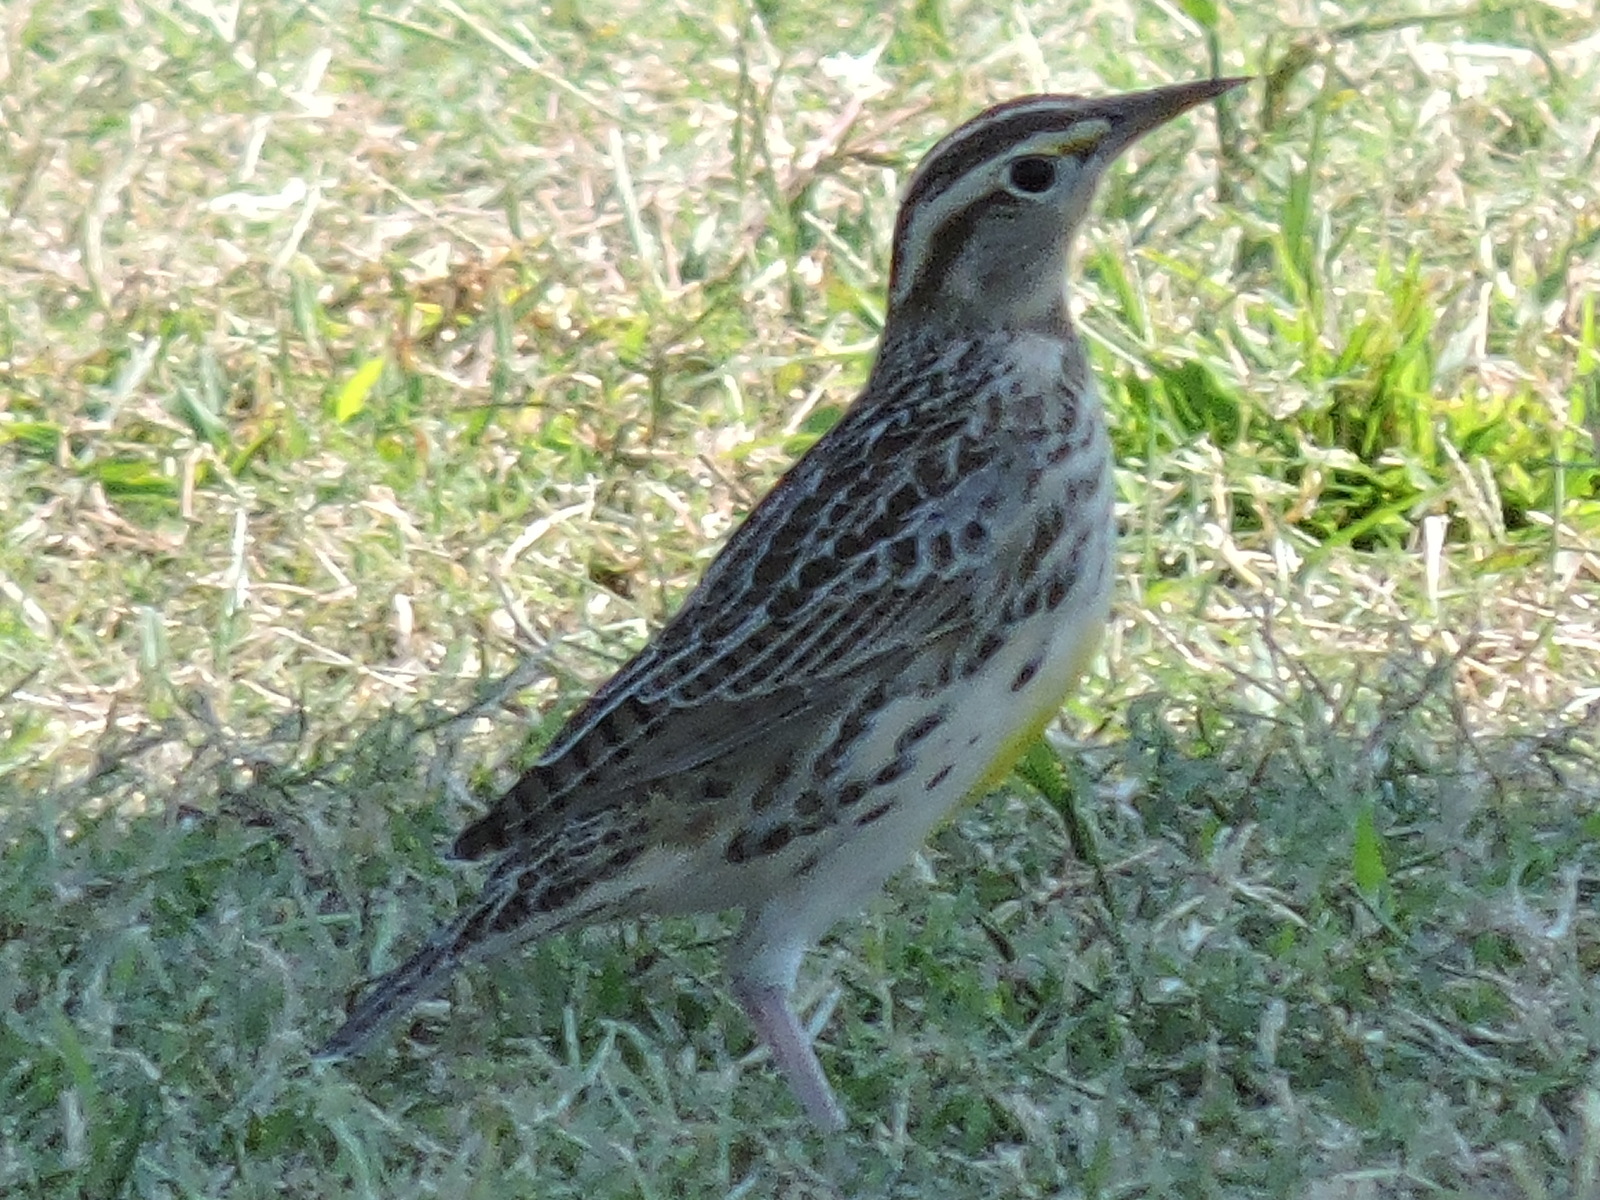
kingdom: Animalia
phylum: Chordata
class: Aves
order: Passeriformes
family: Icteridae
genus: Sturnella
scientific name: Sturnella magna
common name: Eastern meadowlark
